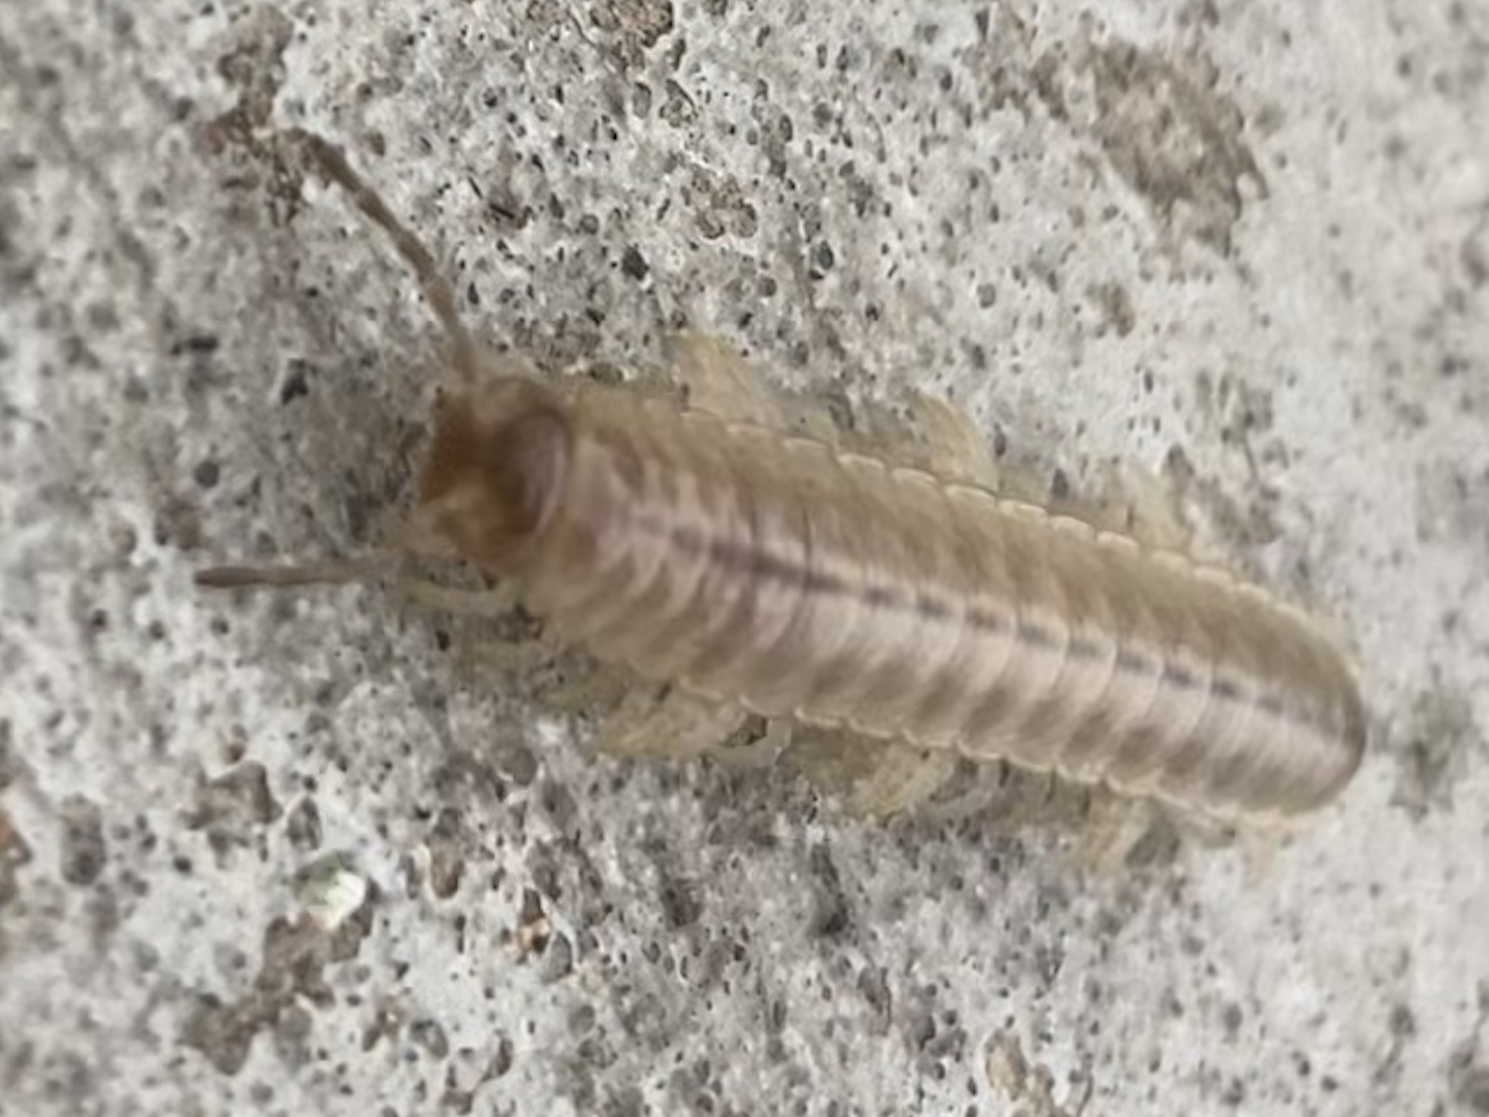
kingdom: Animalia
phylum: Arthropoda
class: Diplopoda
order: Polydesmida
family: Xystodesmidae
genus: Pleuroloma
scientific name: Pleuroloma flavipes
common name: Yellow-legged pleuroloma
